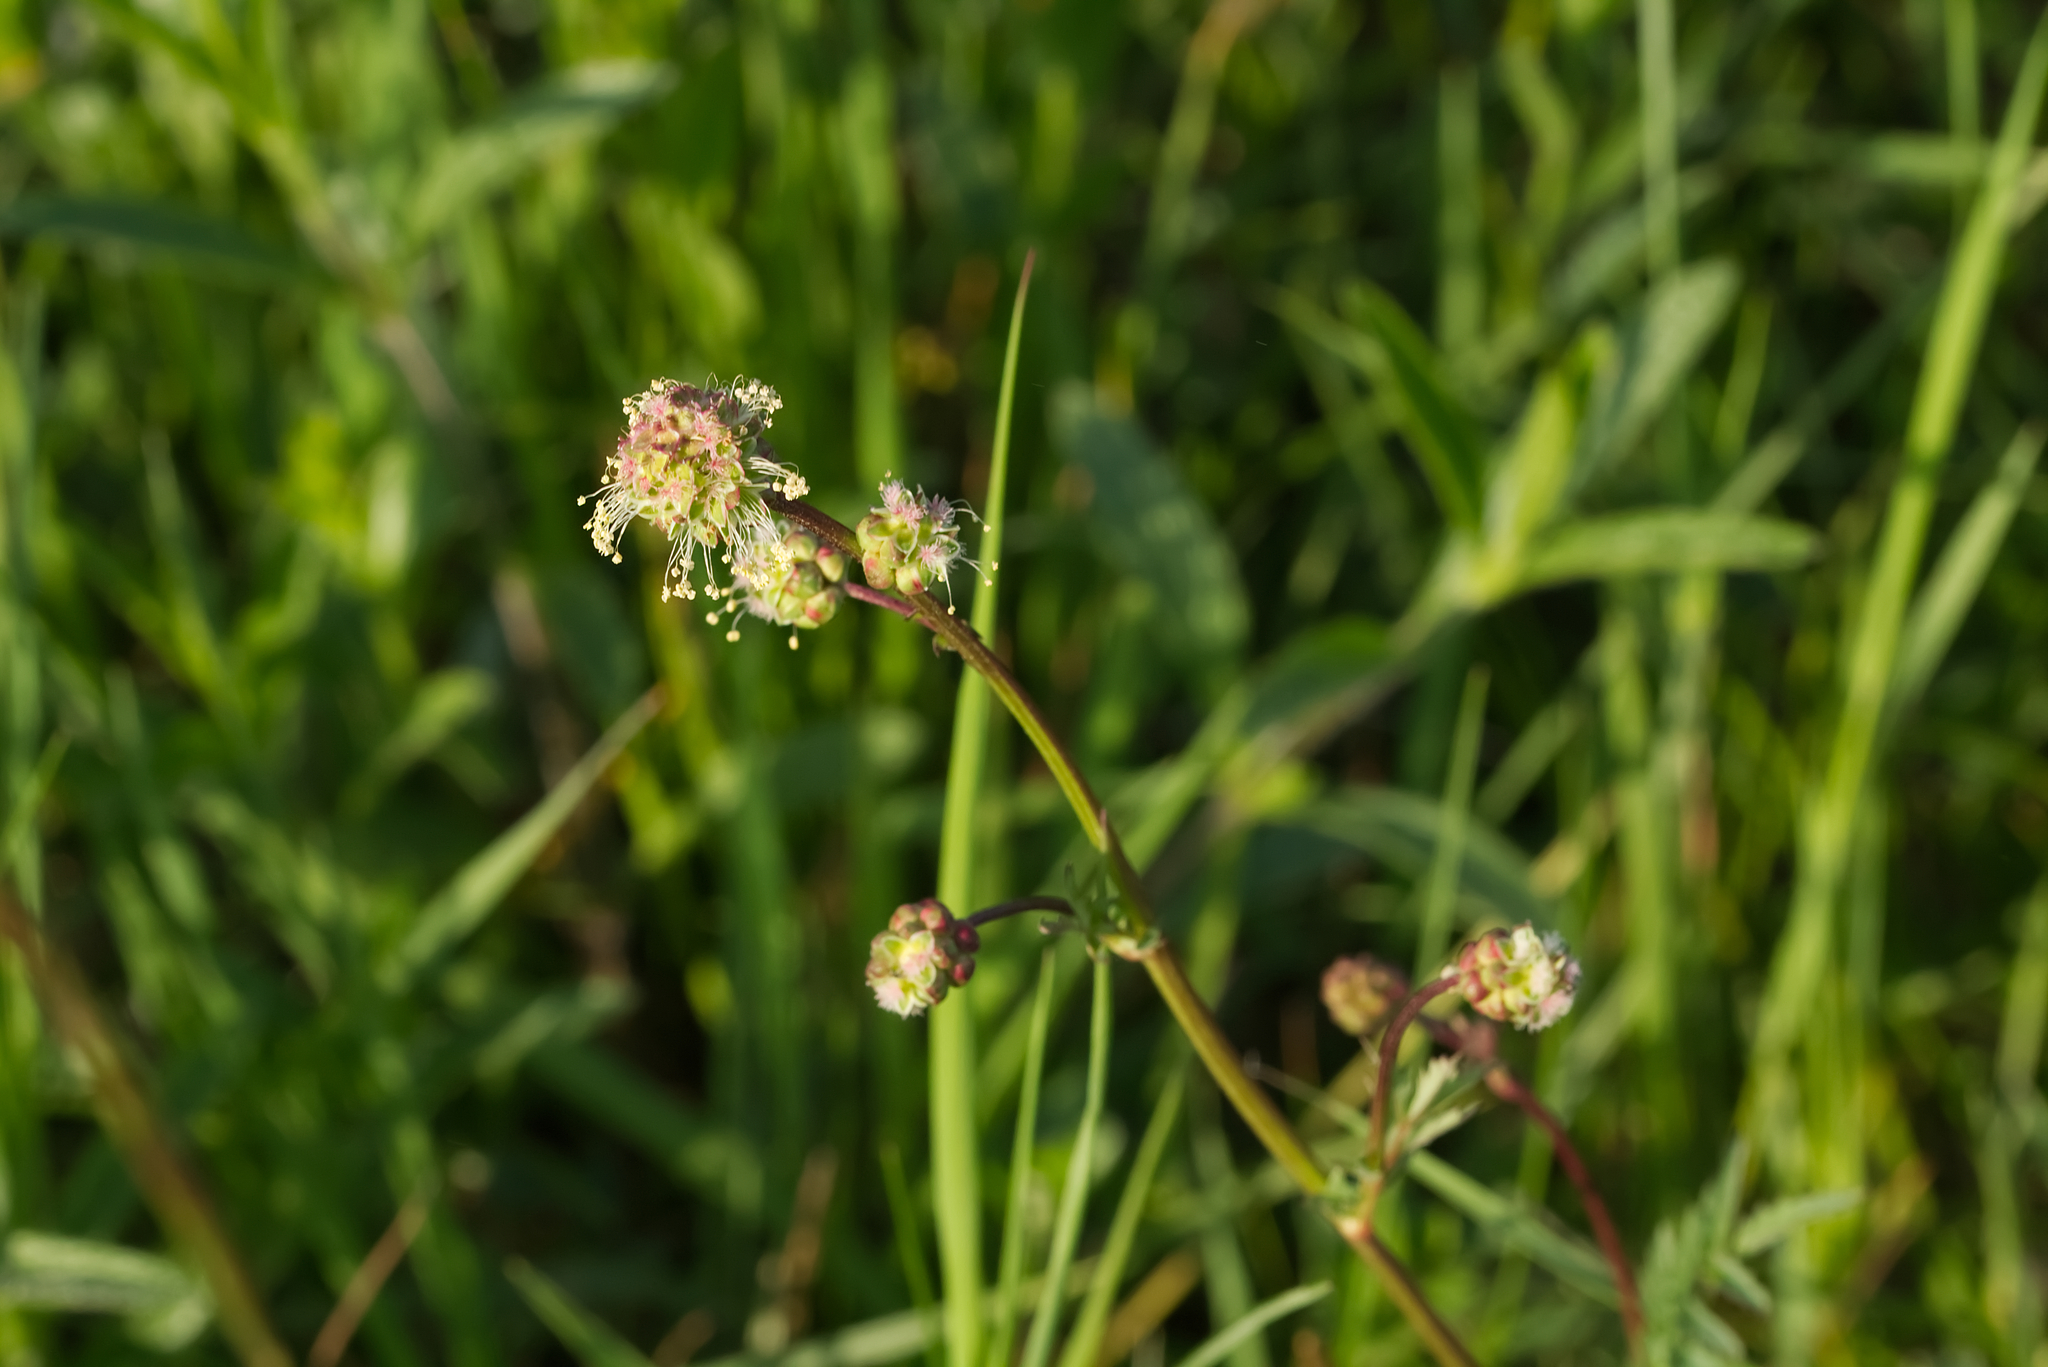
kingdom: Plantae
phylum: Tracheophyta
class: Magnoliopsida
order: Rosales
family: Rosaceae
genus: Poterium
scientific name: Poterium sanguisorba
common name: Salad burnet
